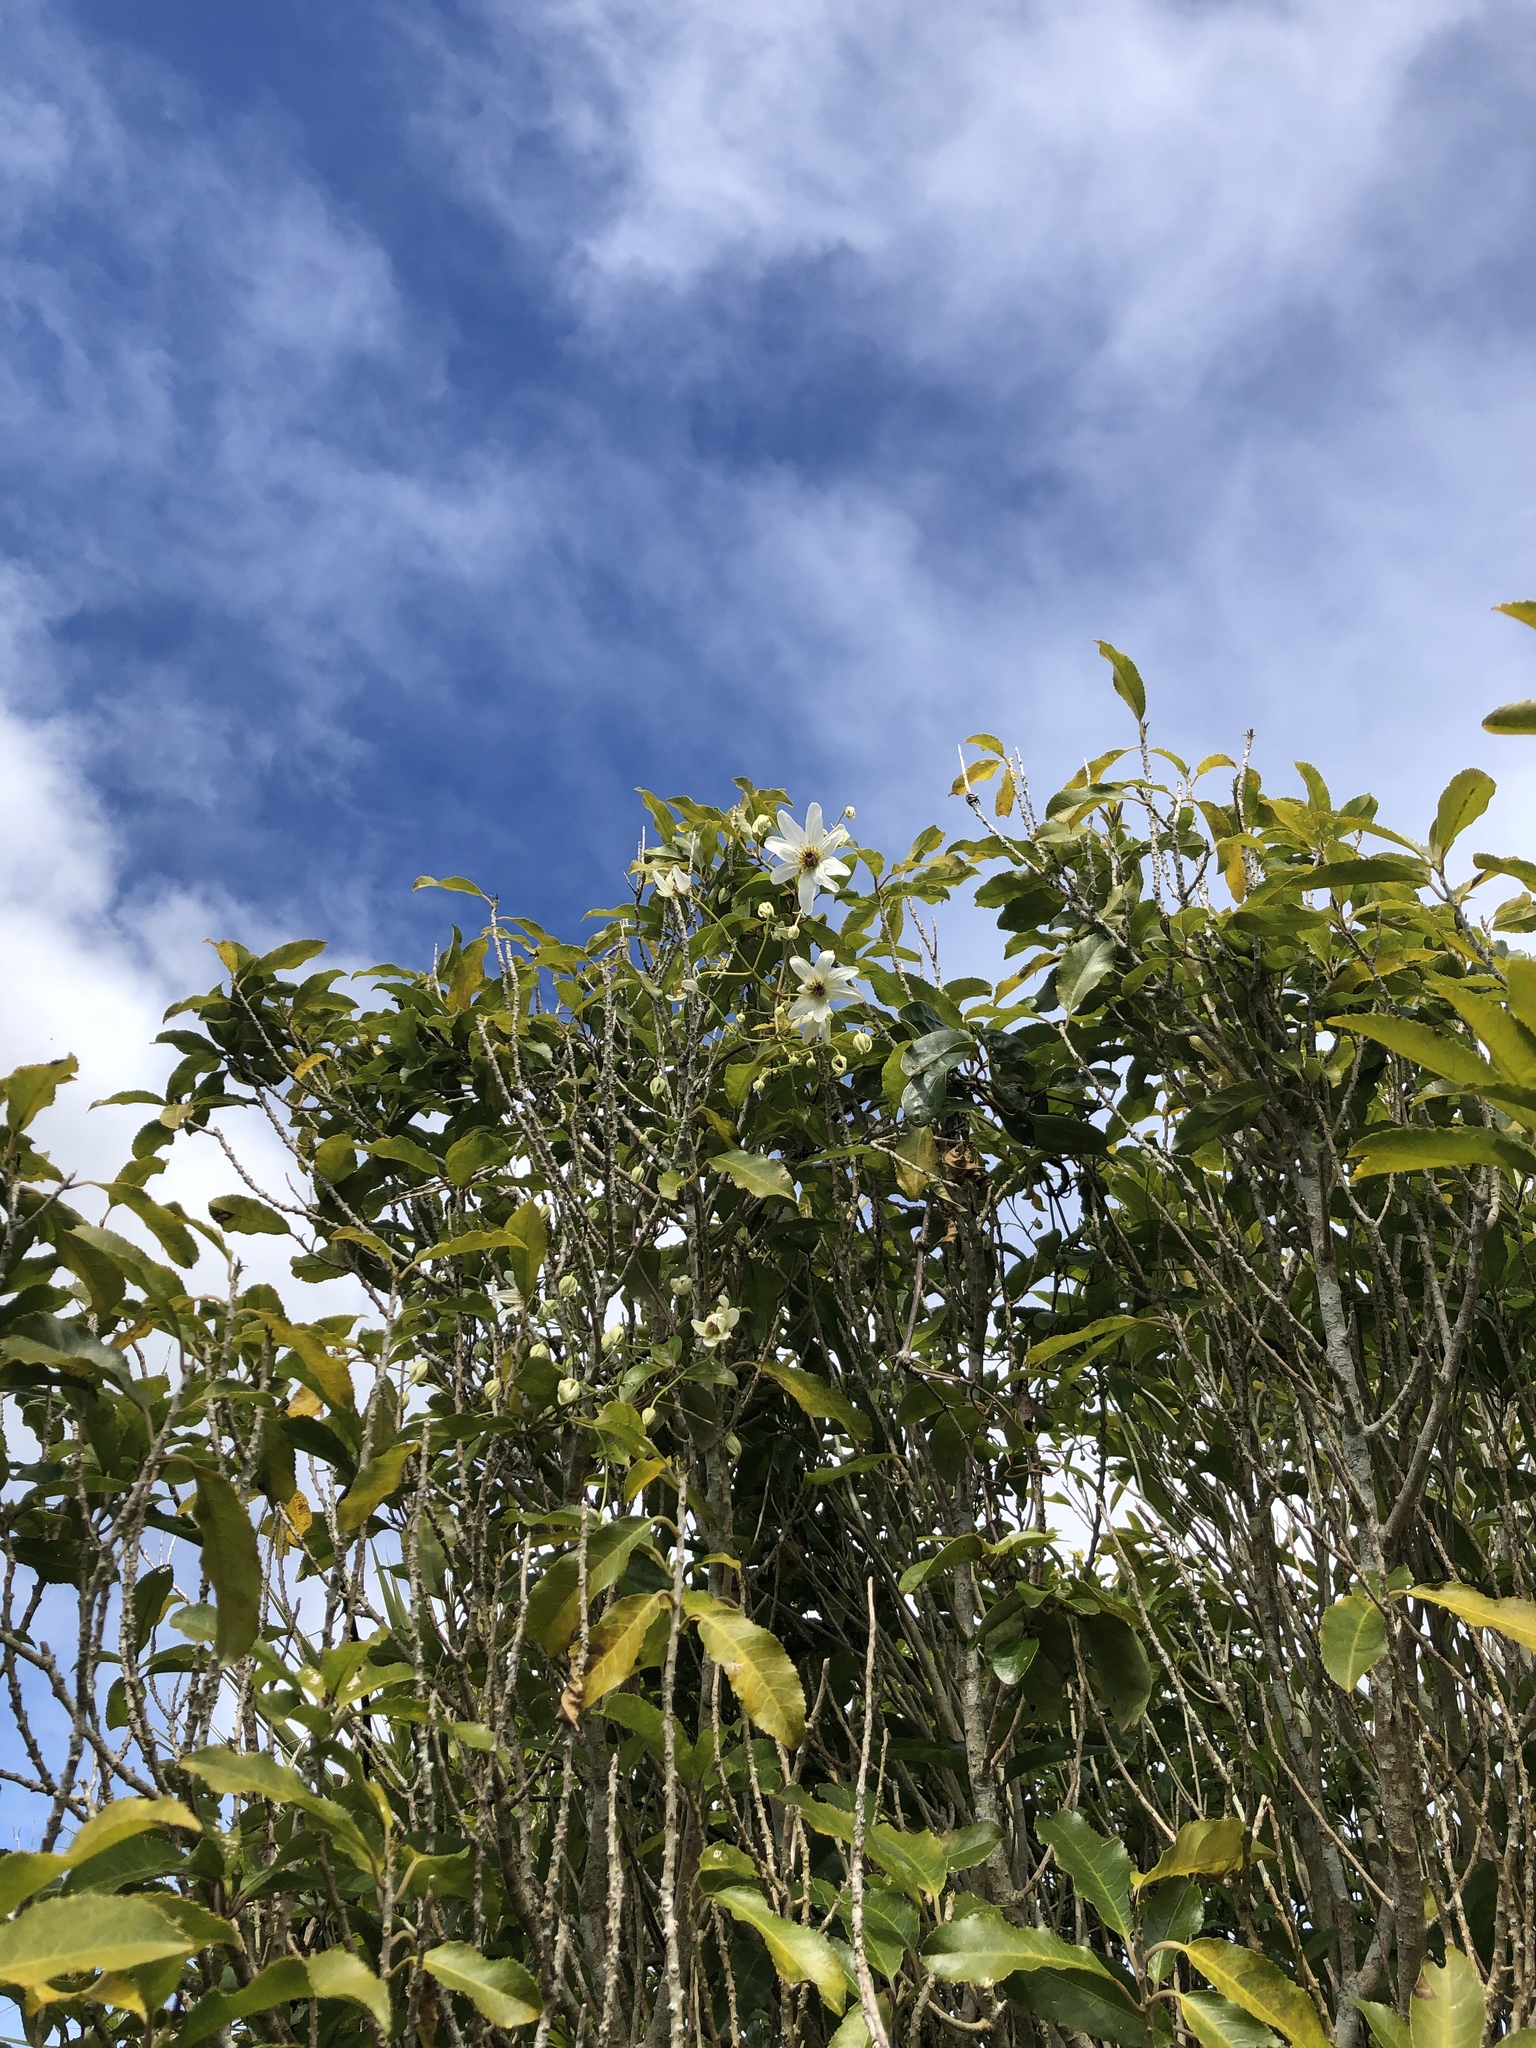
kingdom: Plantae
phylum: Tracheophyta
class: Magnoliopsida
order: Ranunculales
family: Ranunculaceae
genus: Clematis
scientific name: Clematis paniculata
